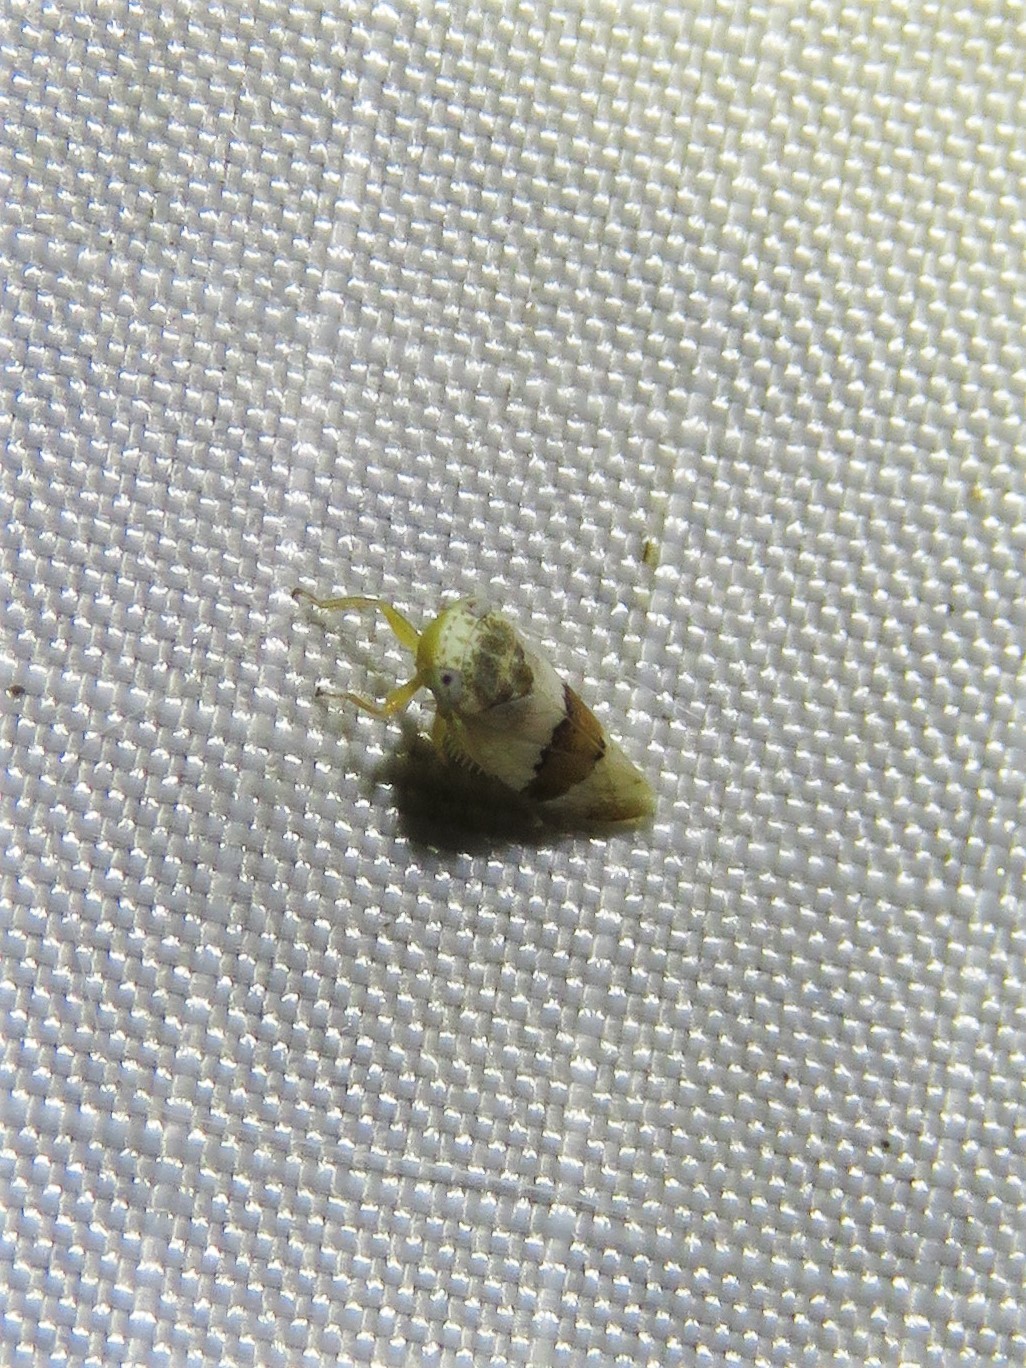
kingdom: Animalia
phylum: Arthropoda
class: Insecta
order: Hemiptera
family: Cicadellidae
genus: Norvellina
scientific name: Norvellina seminuda
